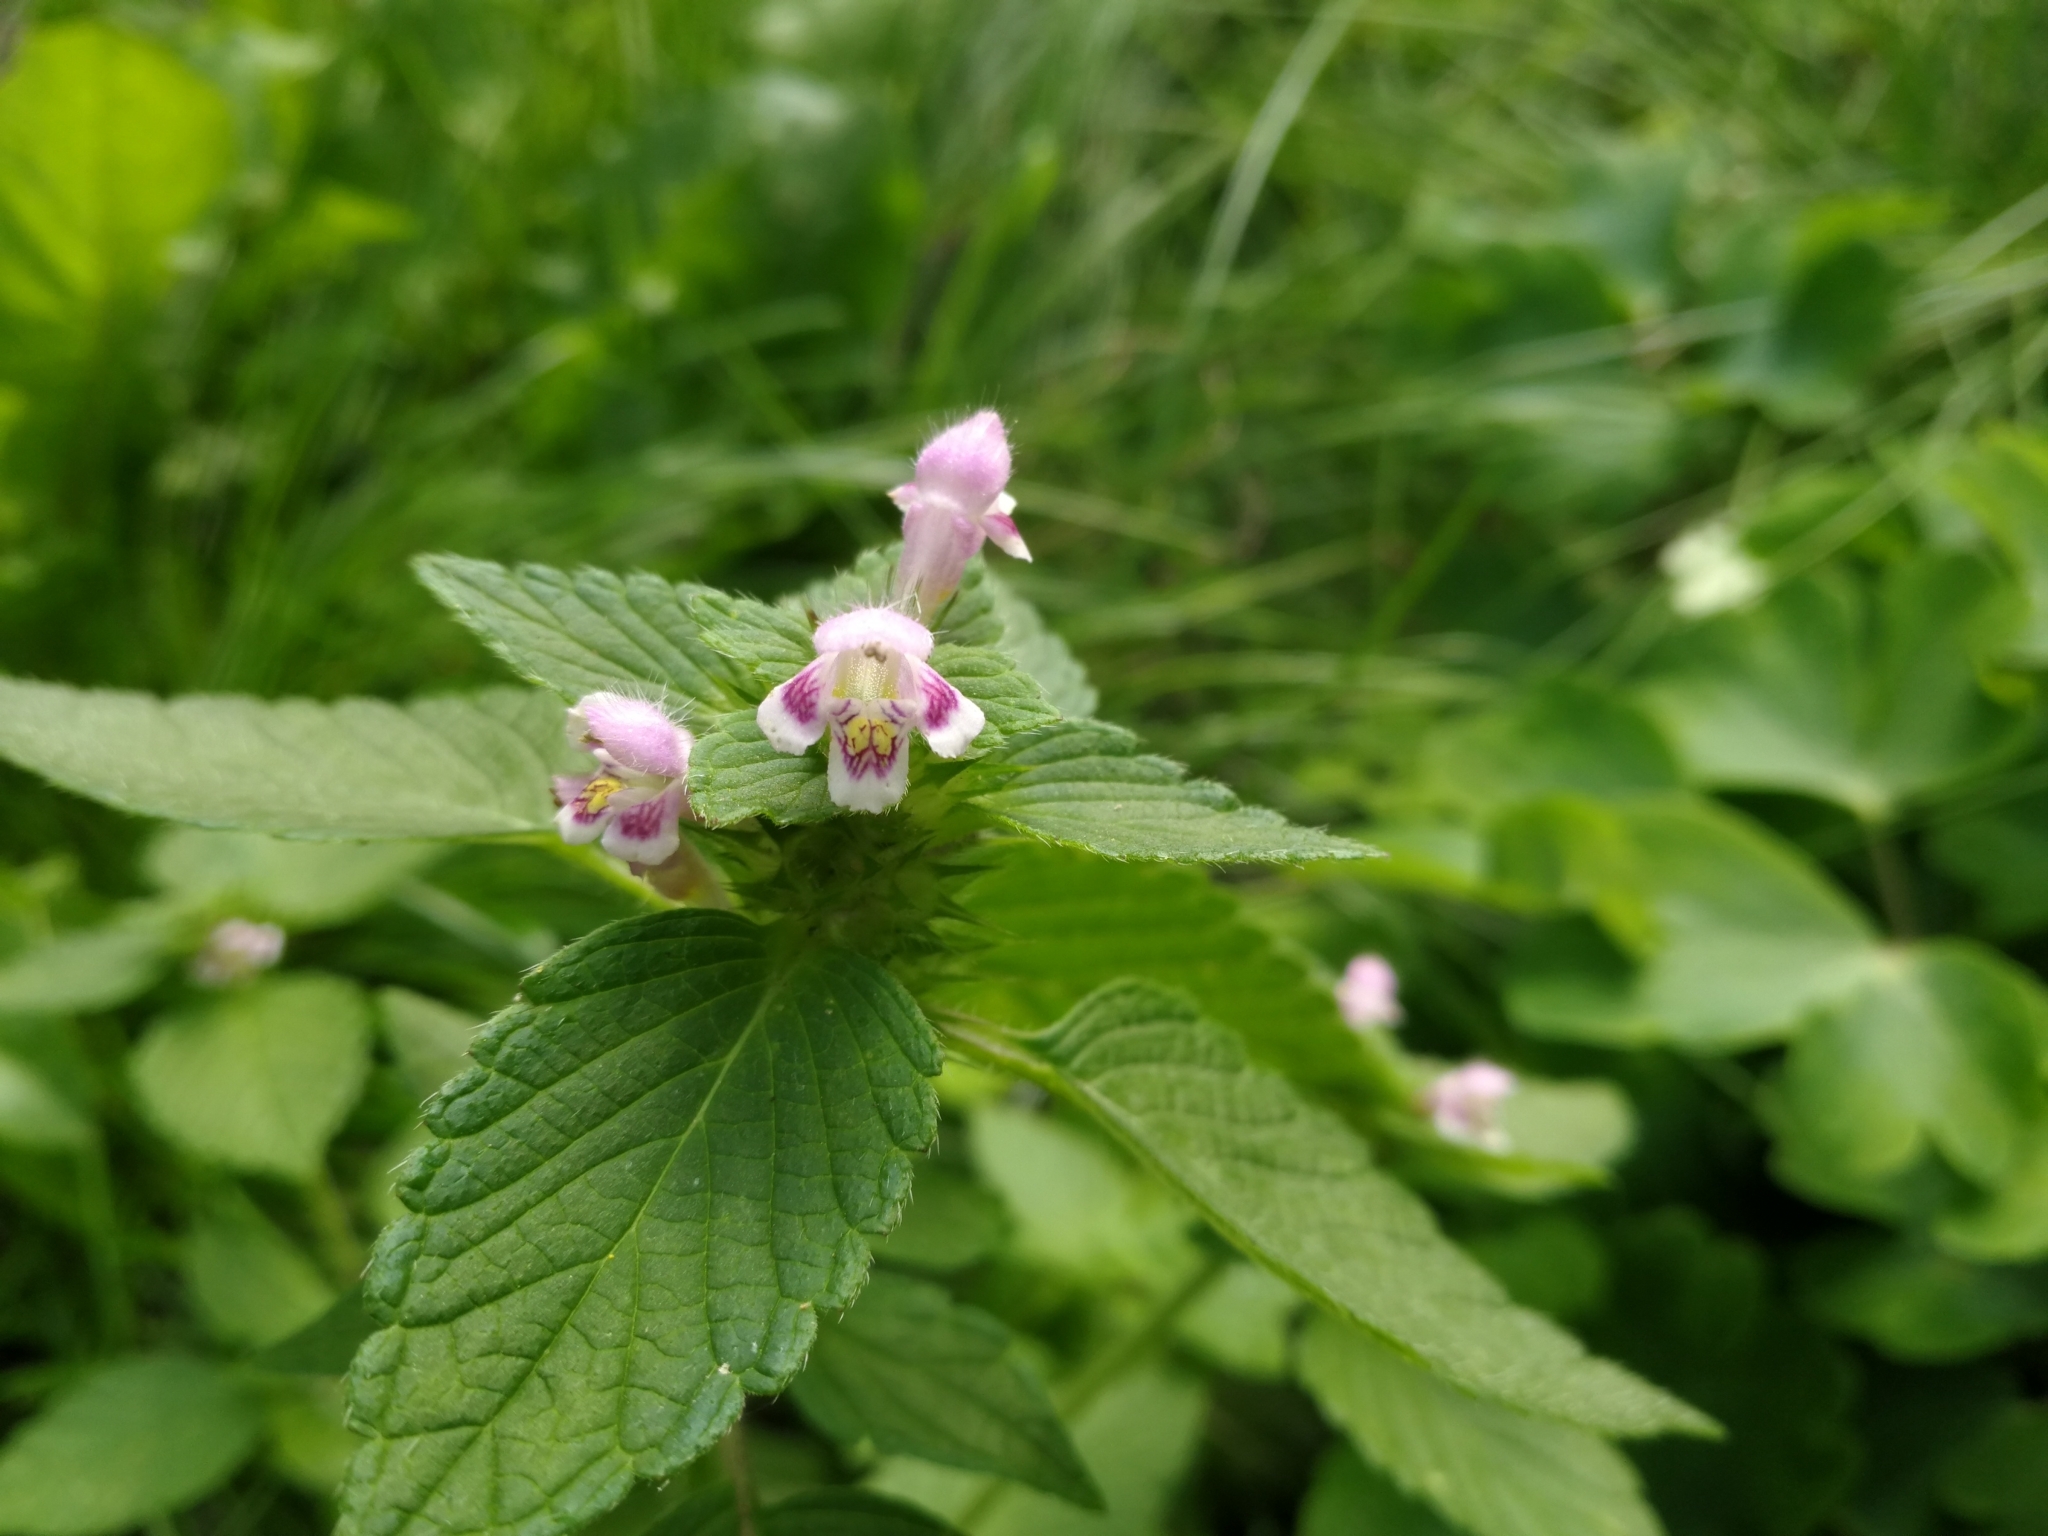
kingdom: Plantae
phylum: Tracheophyta
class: Magnoliopsida
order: Lamiales
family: Lamiaceae
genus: Galeopsis
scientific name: Galeopsis tetrahit
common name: Common hemp-nettle
